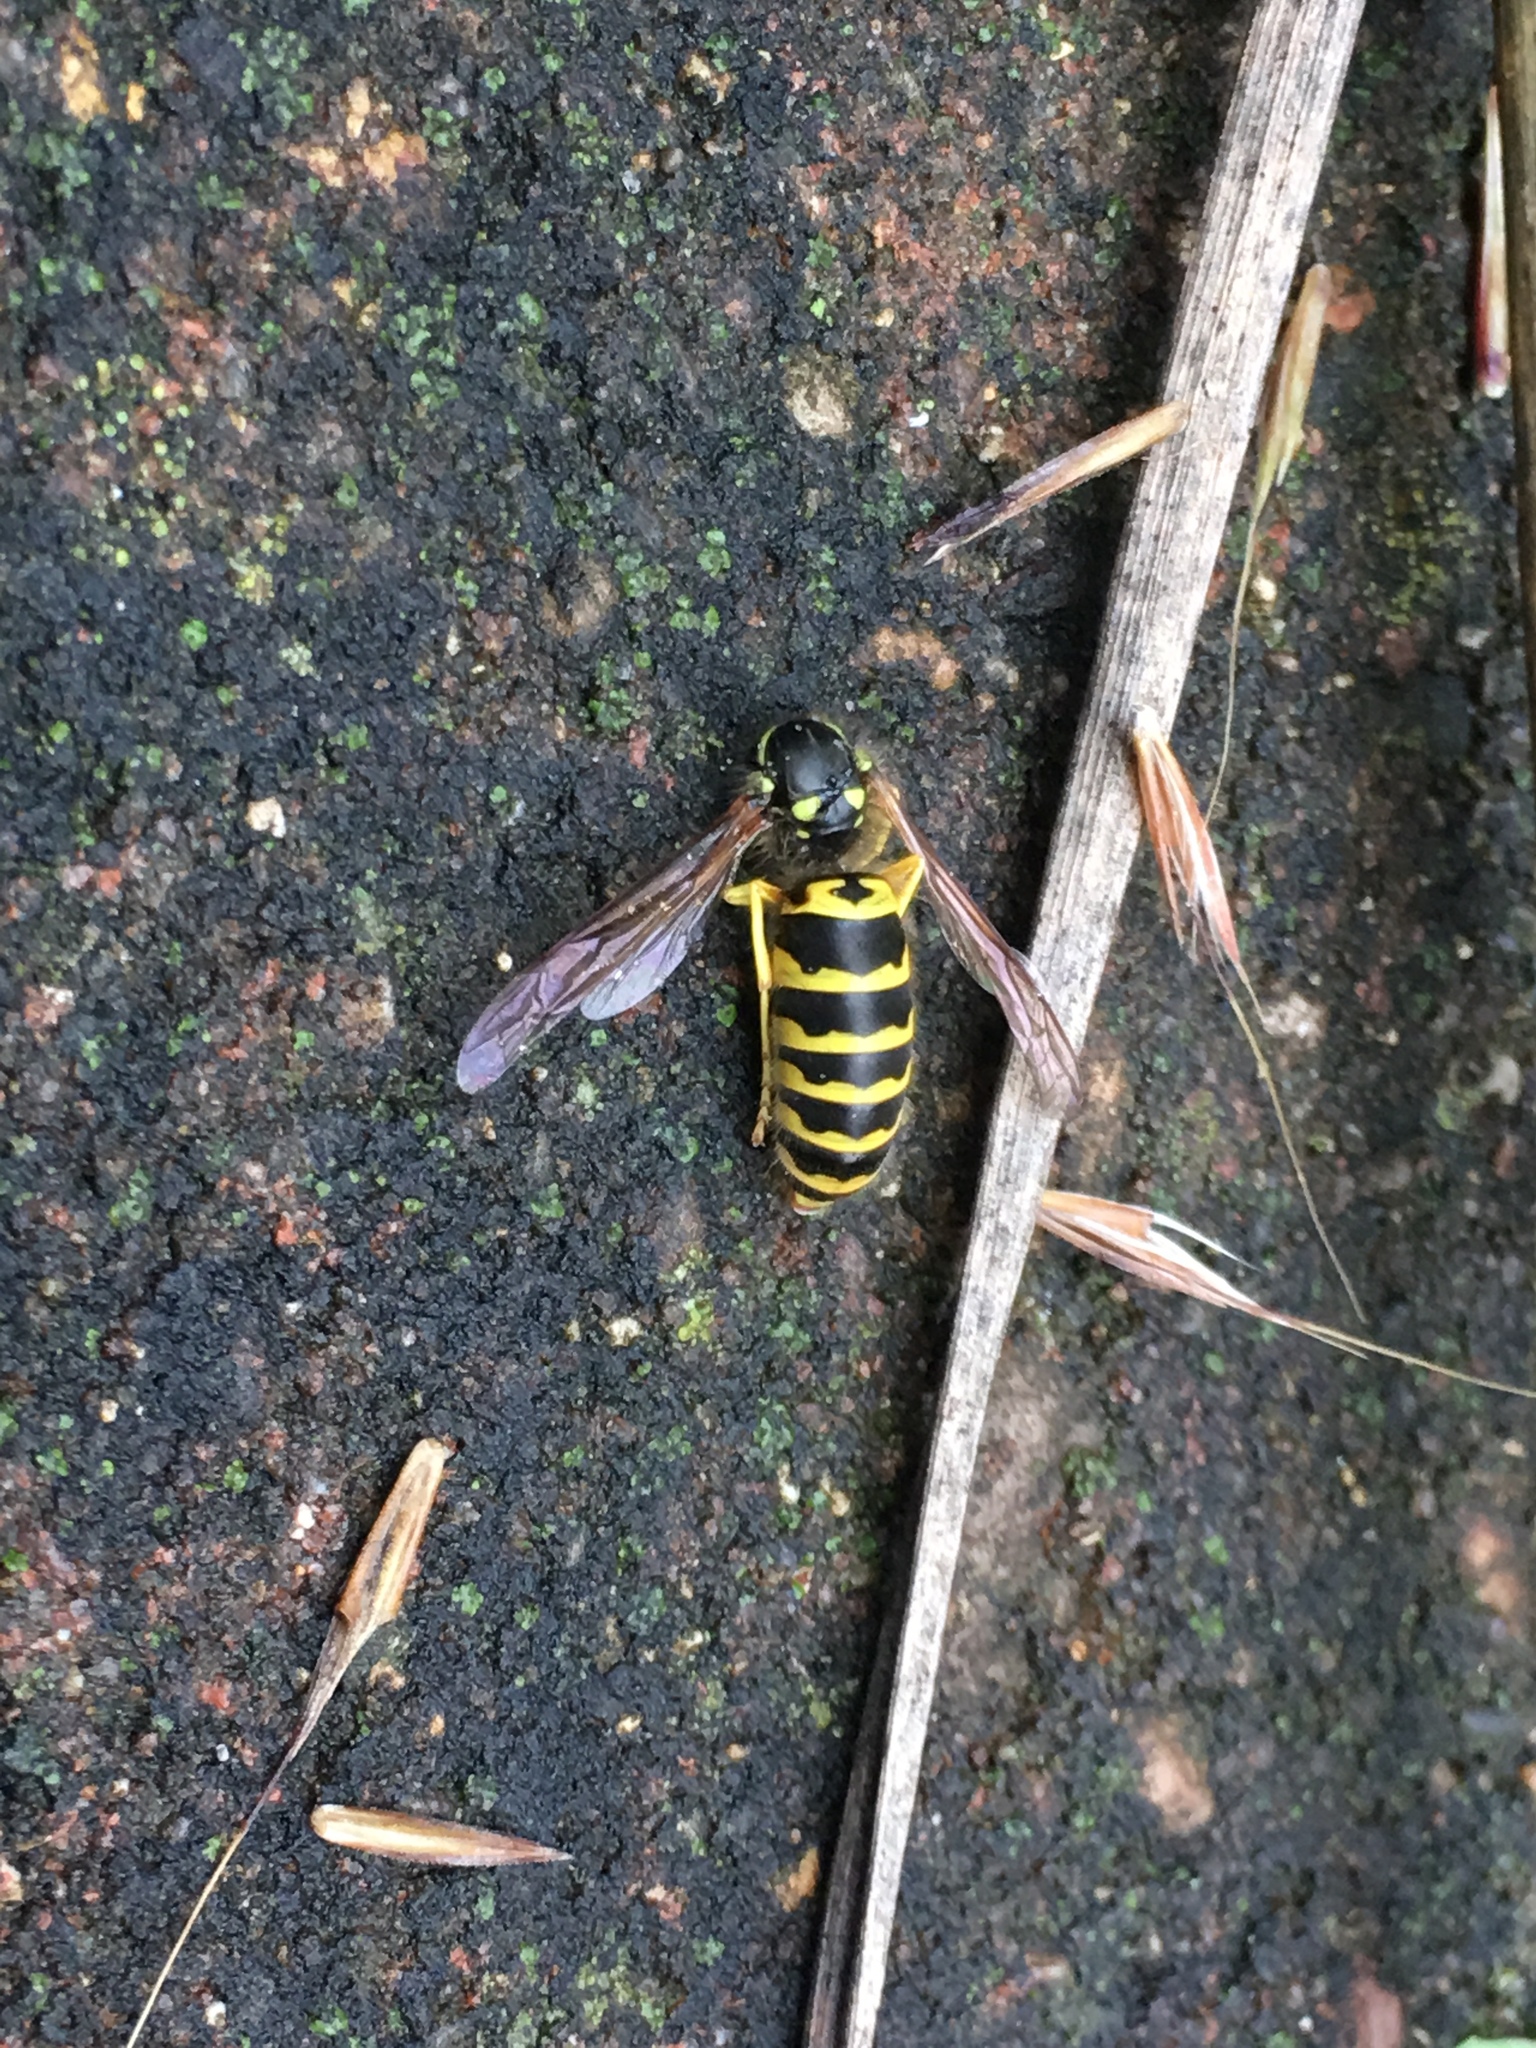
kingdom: Animalia
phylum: Arthropoda
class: Insecta
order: Hymenoptera
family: Vespidae
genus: Vespula
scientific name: Vespula maculifrons
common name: Eastern yellowjacket
